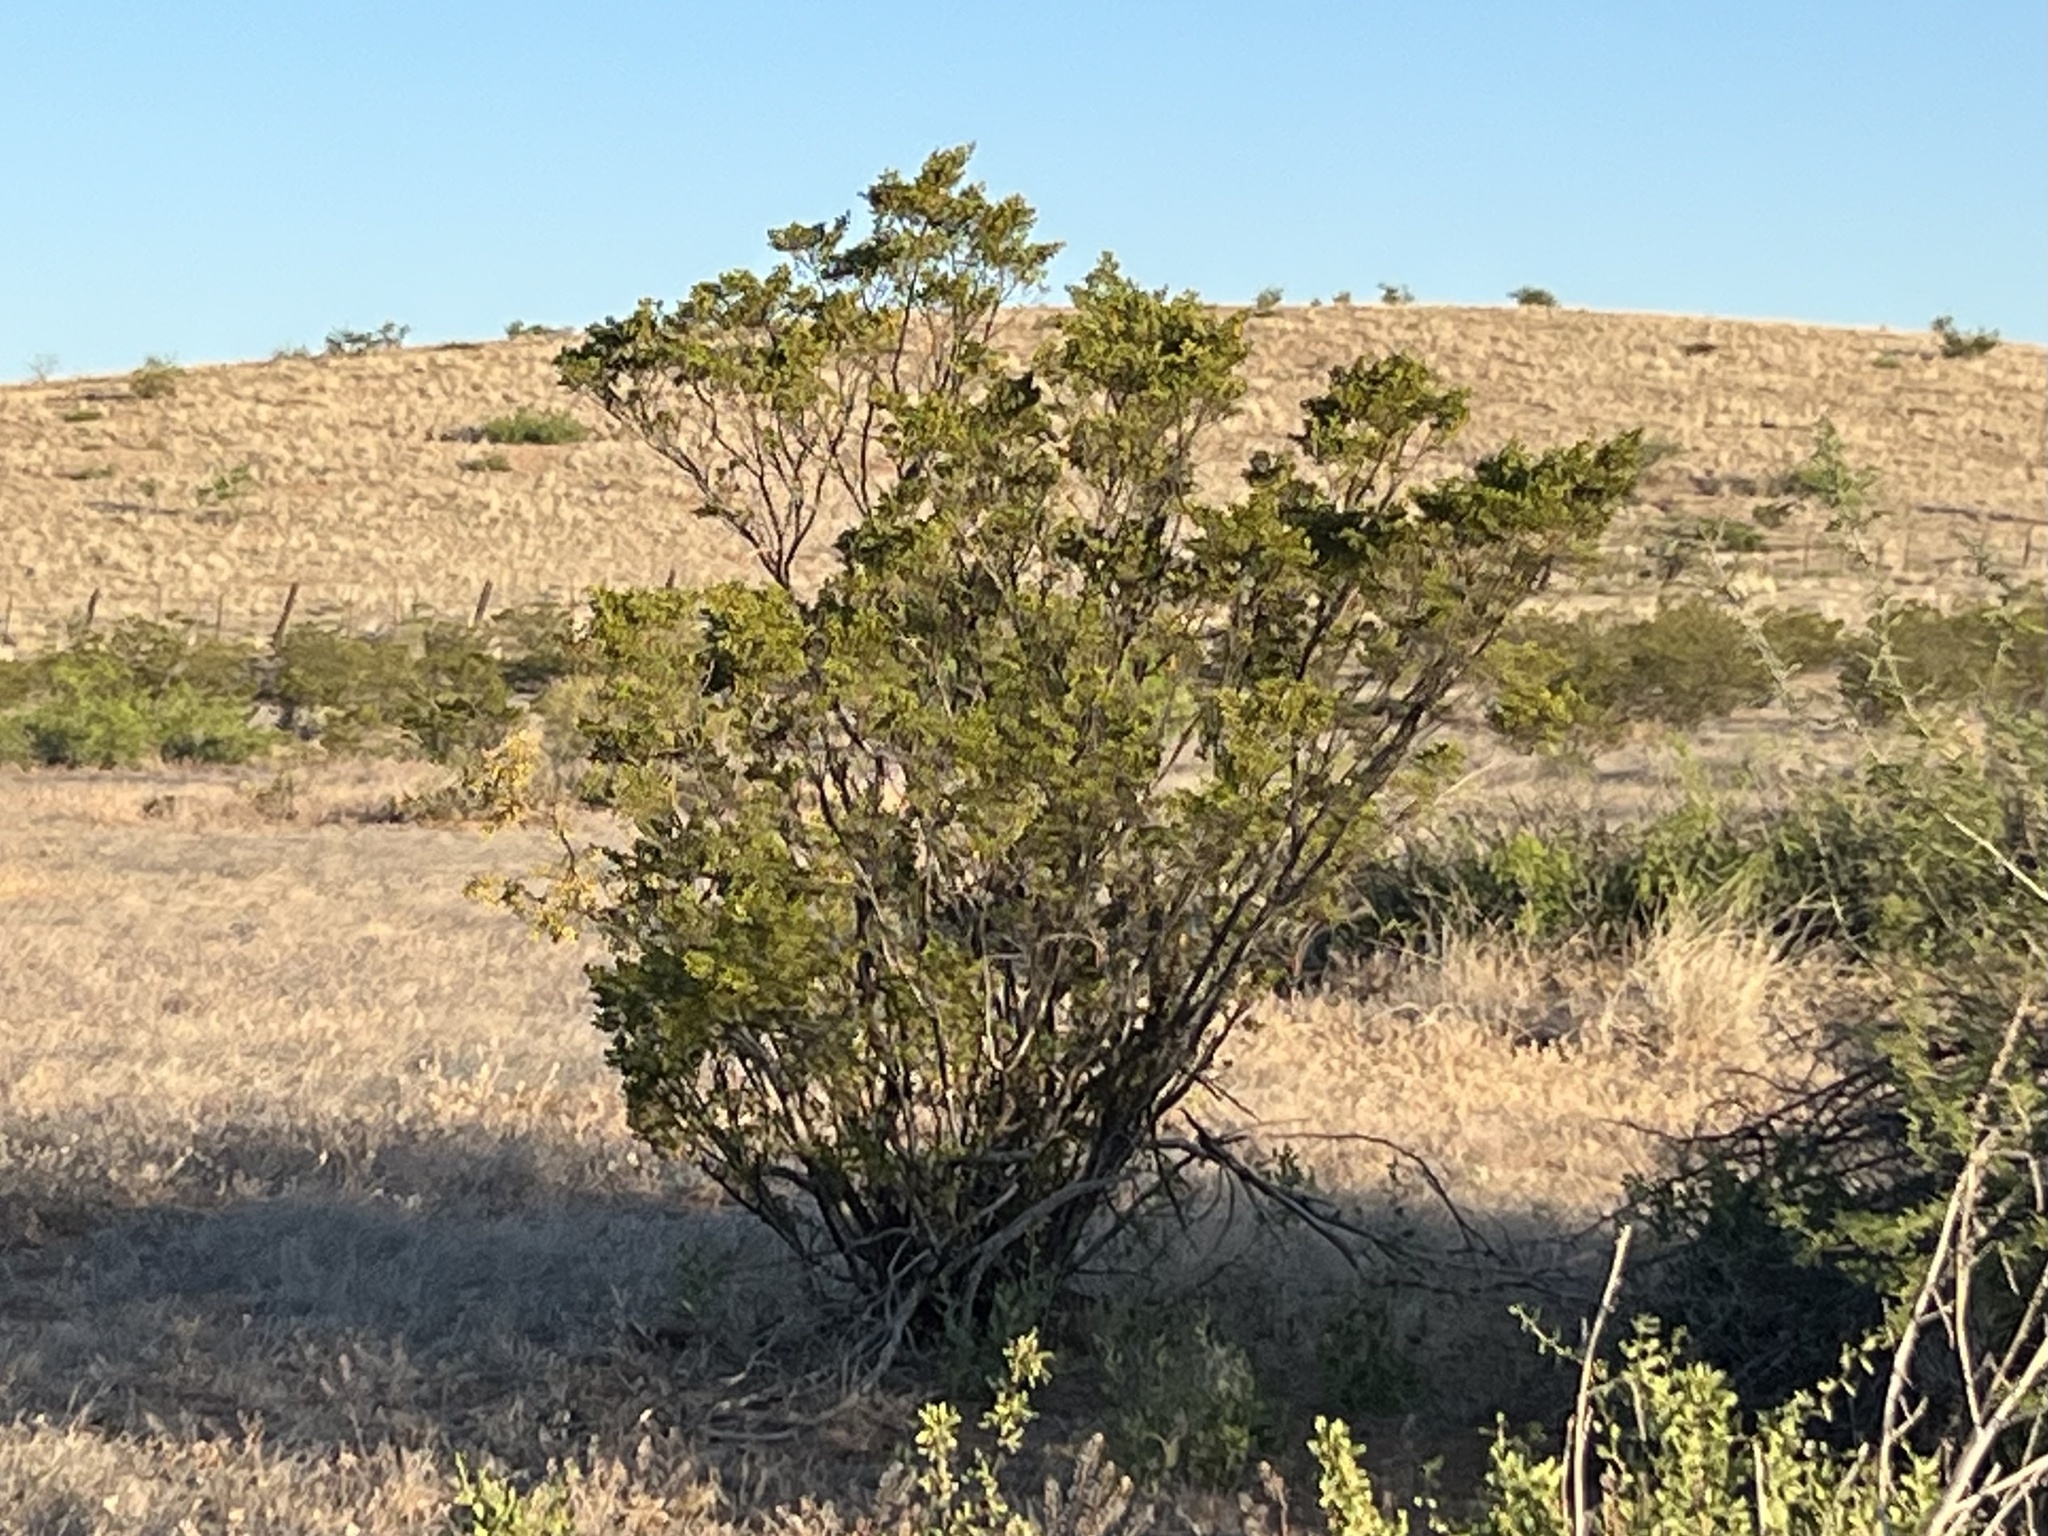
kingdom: Plantae
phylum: Tracheophyta
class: Magnoliopsida
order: Zygophyllales
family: Zygophyllaceae
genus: Larrea
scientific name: Larrea tridentata
